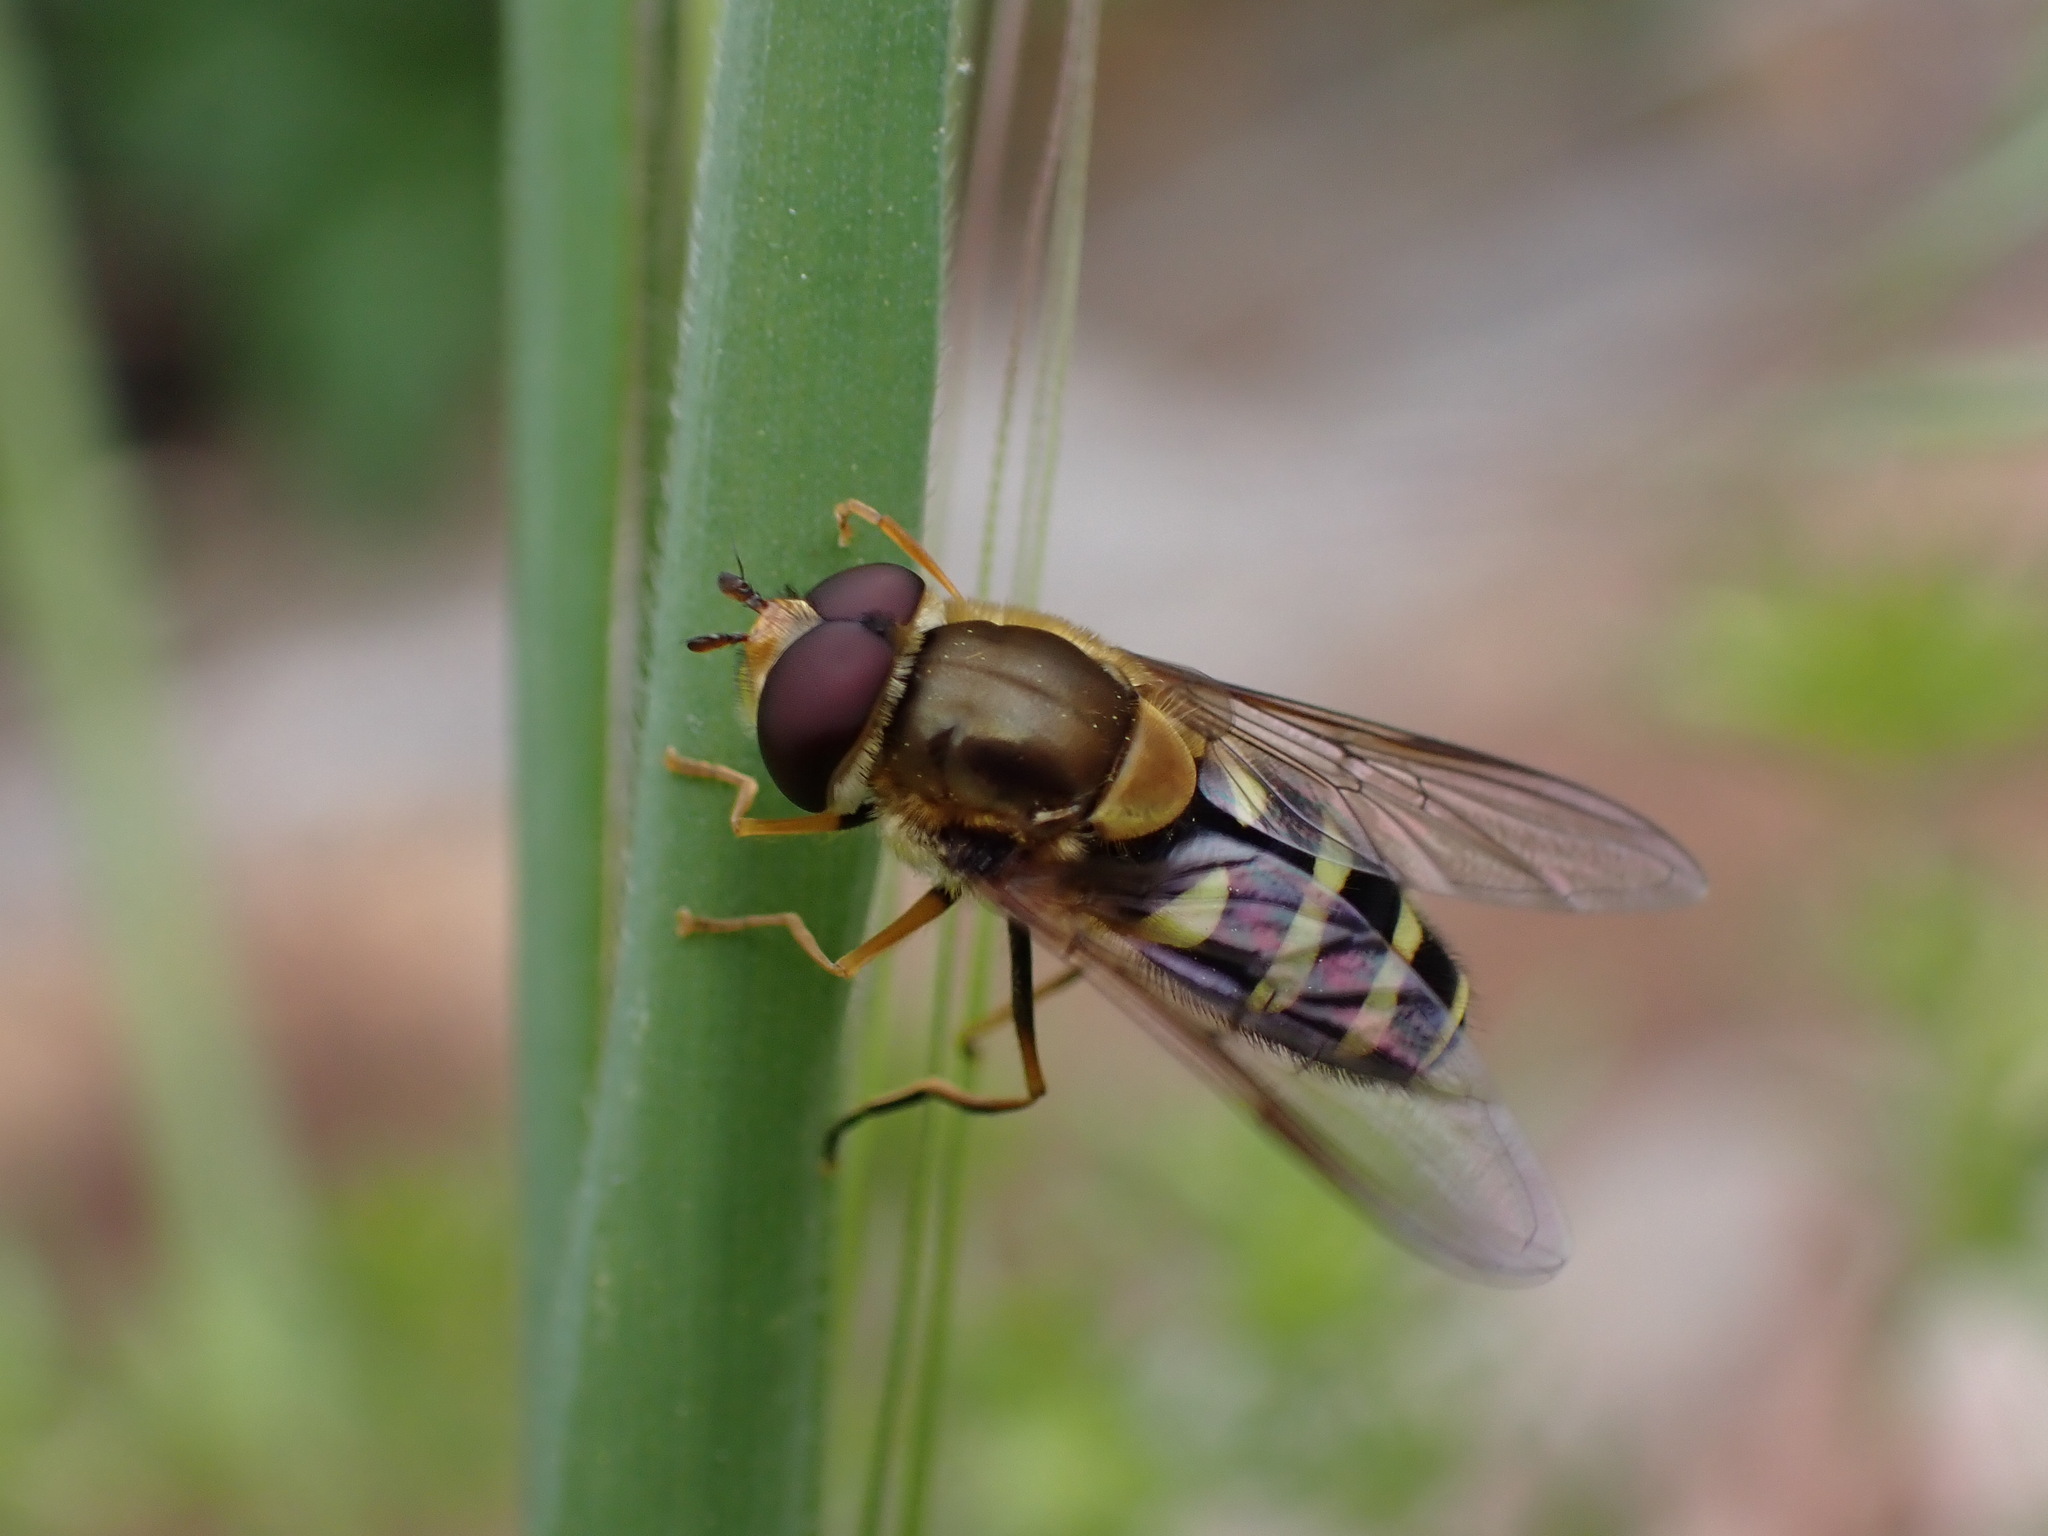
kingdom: Animalia
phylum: Arthropoda
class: Insecta
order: Diptera
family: Syrphidae
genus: Syrphus
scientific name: Syrphus opinator
